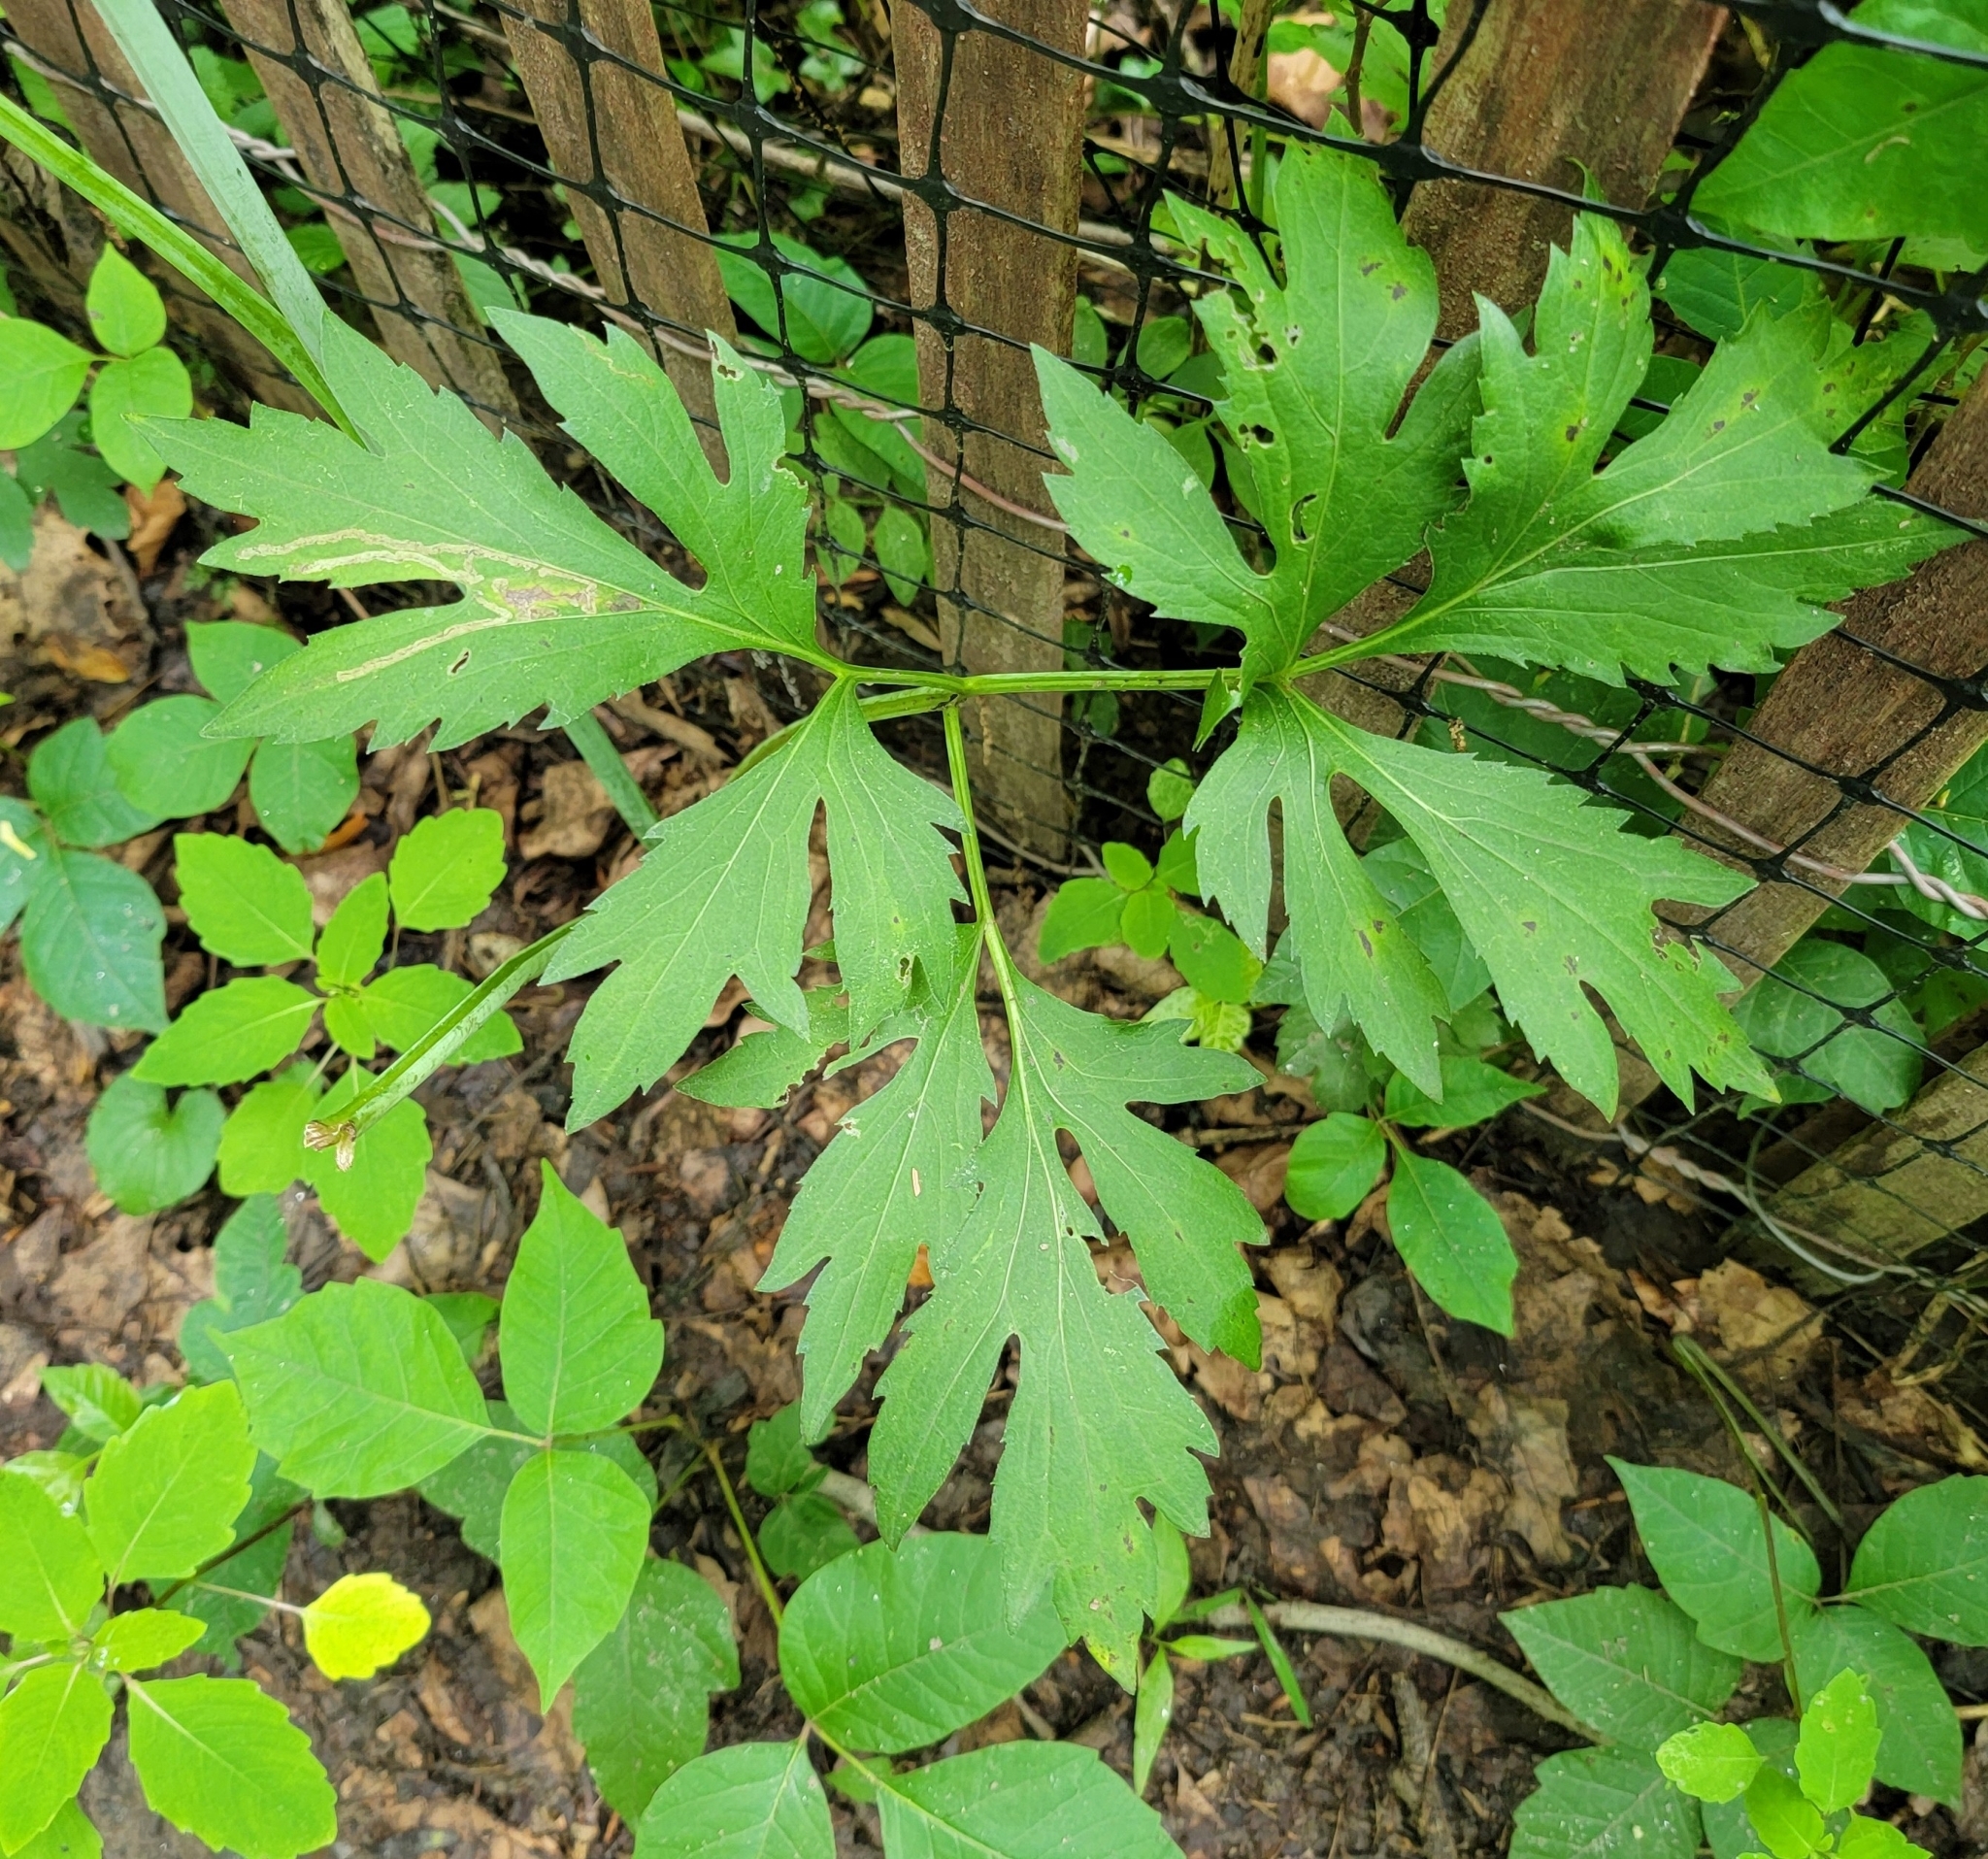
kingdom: Plantae
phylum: Tracheophyta
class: Magnoliopsida
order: Asterales
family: Asteraceae
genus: Rudbeckia
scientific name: Rudbeckia laciniata
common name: Coneflower
